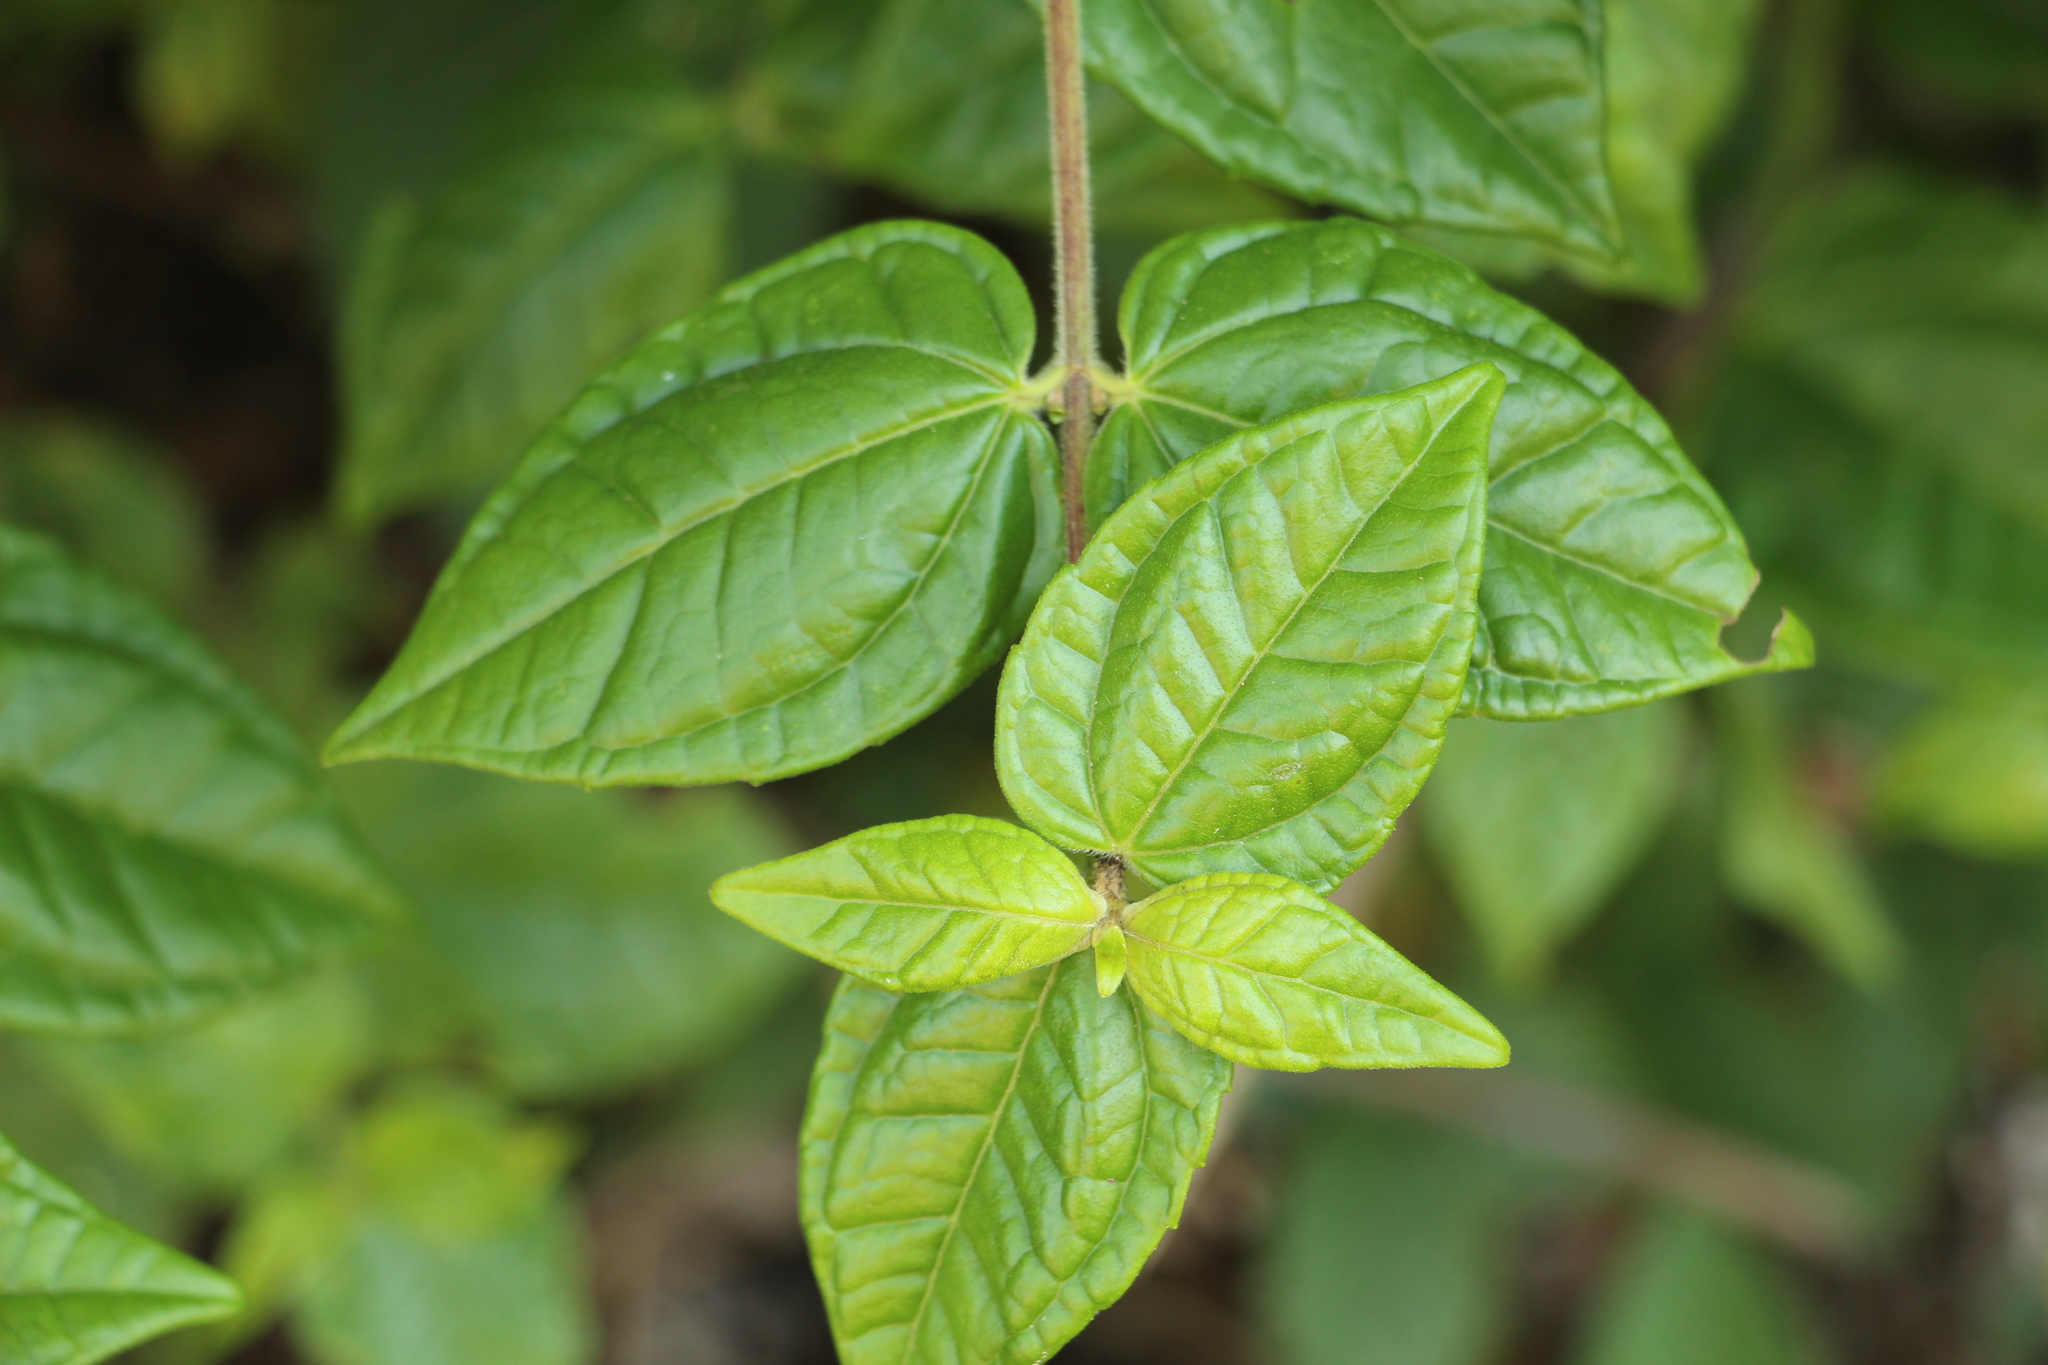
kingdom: Plantae
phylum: Tracheophyta
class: Magnoliopsida
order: Asterales
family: Asteraceae
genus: Calea
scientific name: Calea bucaramangensis
